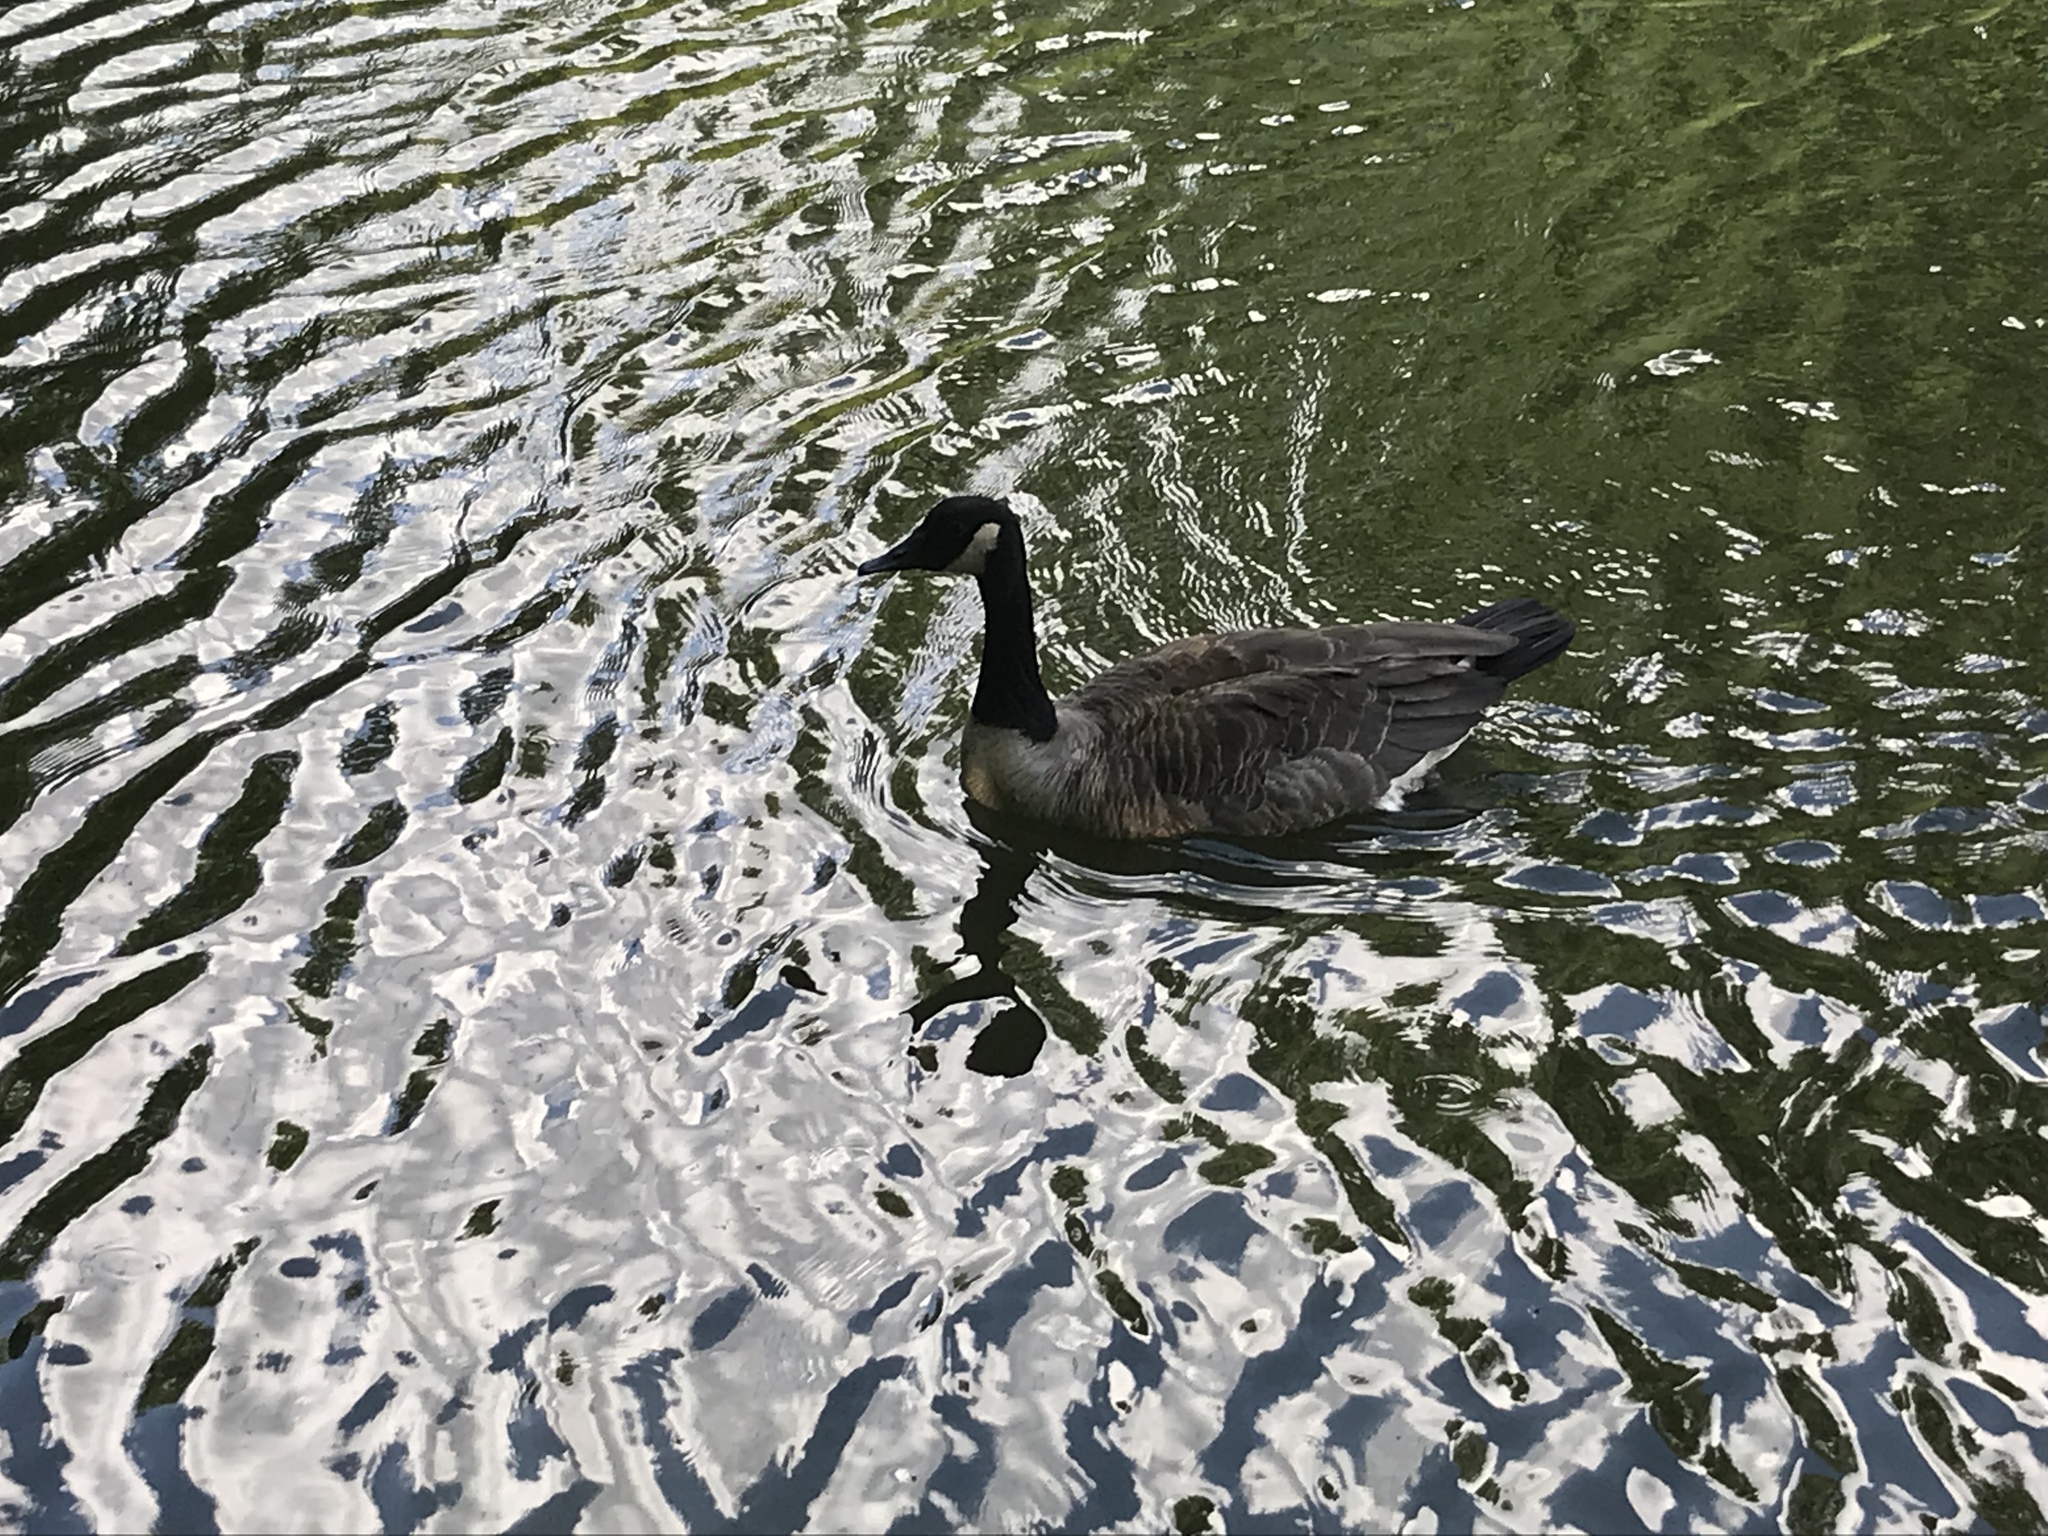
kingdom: Animalia
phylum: Chordata
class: Aves
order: Anseriformes
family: Anatidae
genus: Branta
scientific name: Branta canadensis
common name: Canada goose
